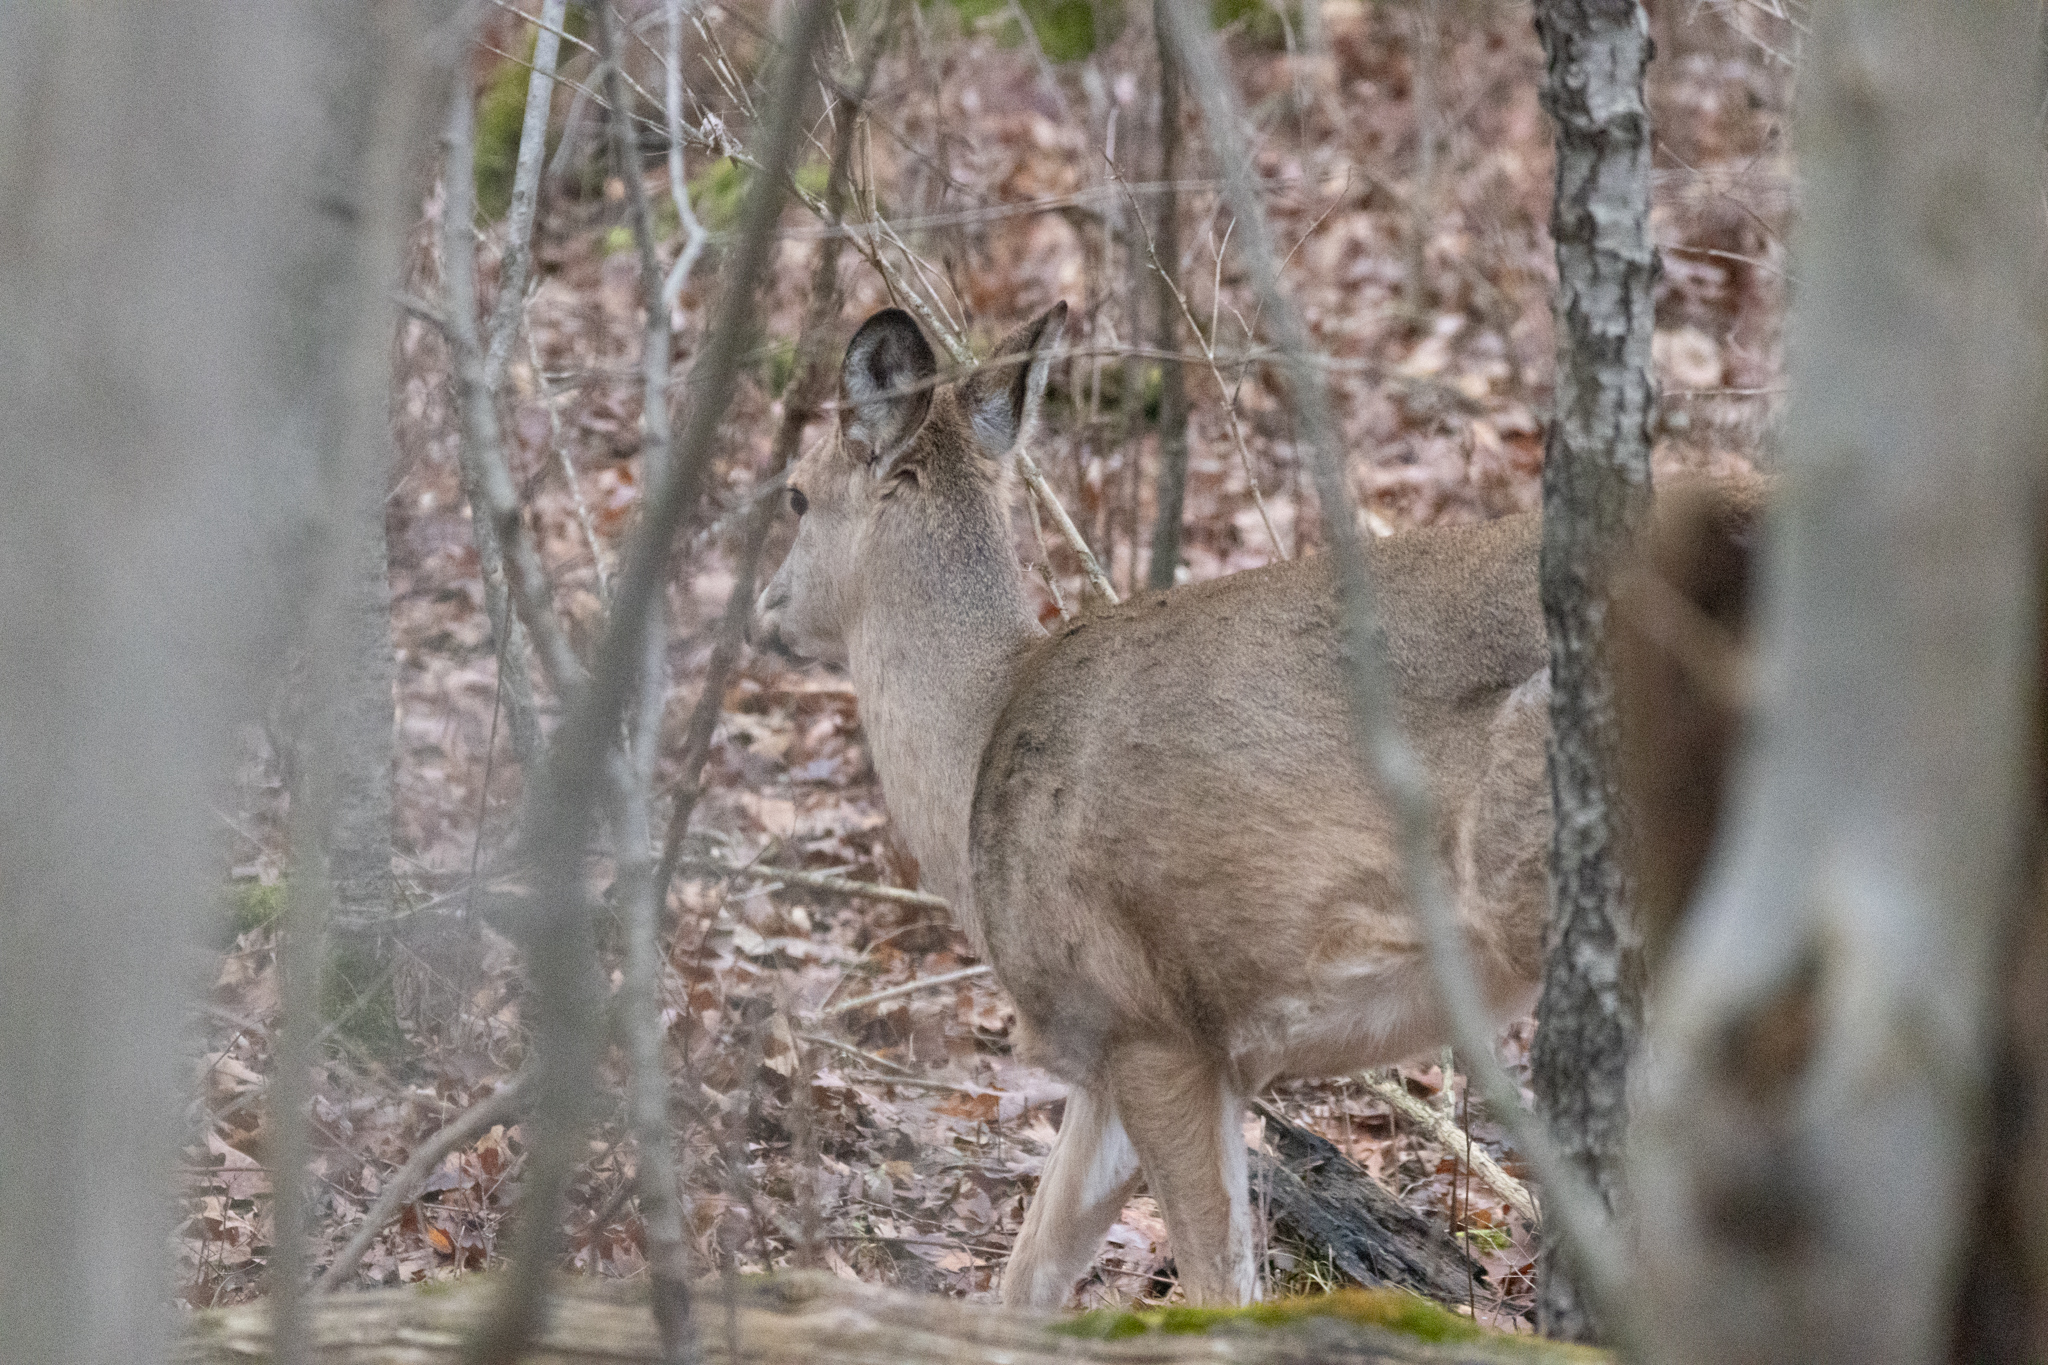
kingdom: Animalia
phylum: Chordata
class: Mammalia
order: Artiodactyla
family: Cervidae
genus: Odocoileus
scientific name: Odocoileus virginianus
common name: White-tailed deer
